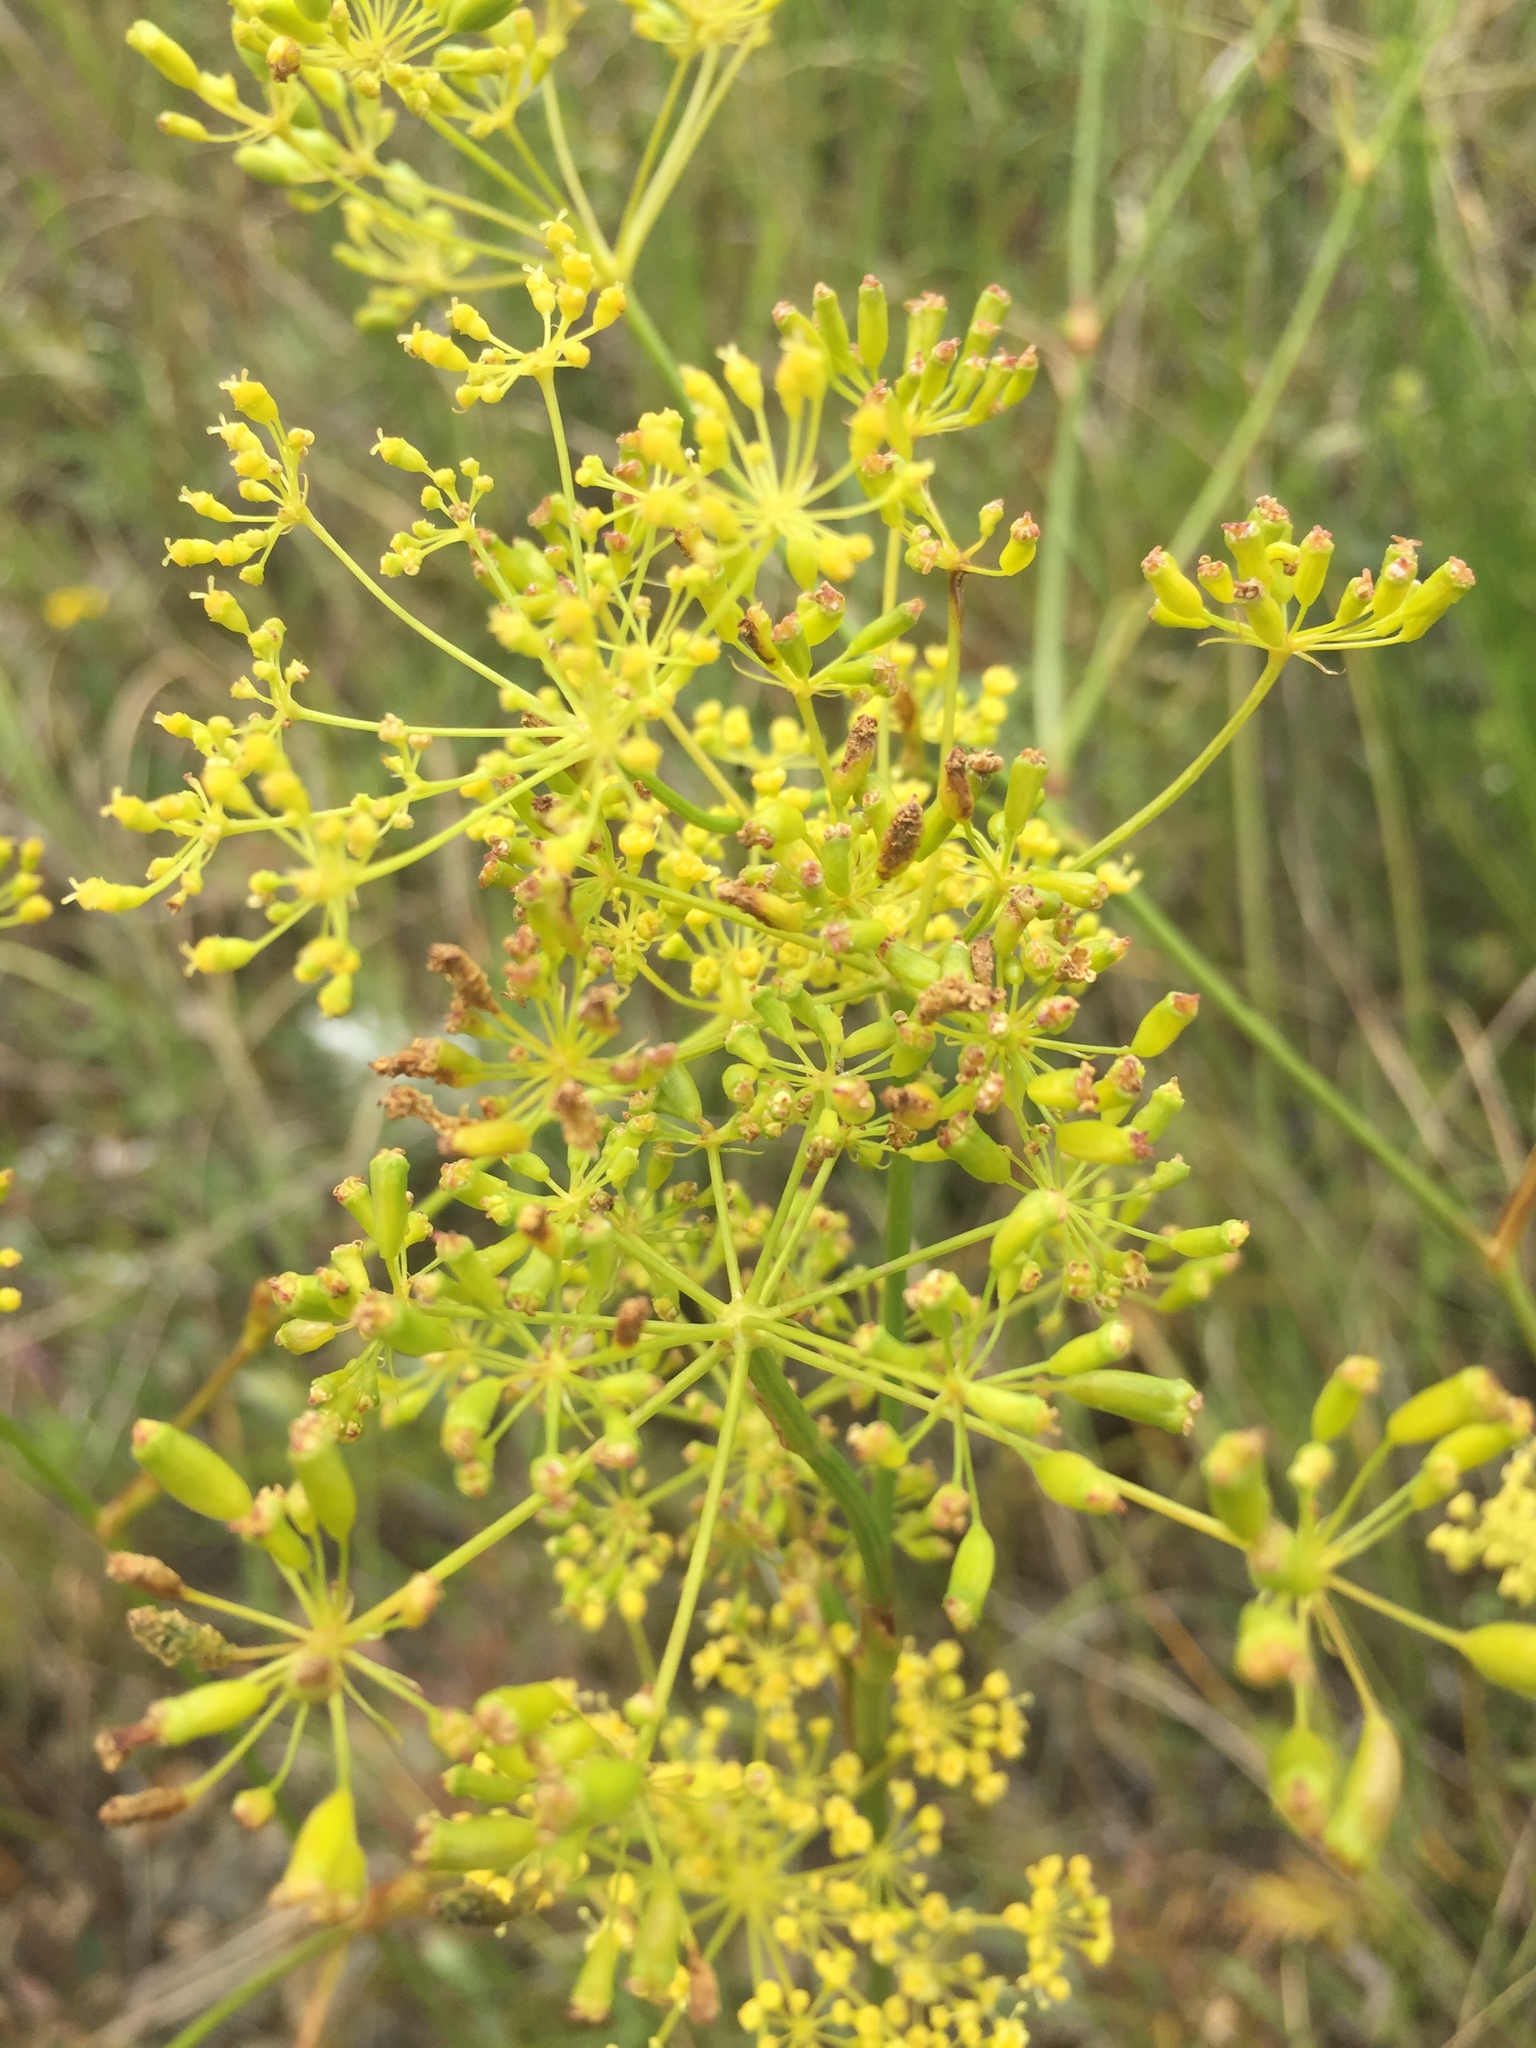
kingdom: Plantae
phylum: Tracheophyta
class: Magnoliopsida
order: Apiales
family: Apiaceae
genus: Peucedanum
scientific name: Peucedanum ruthenicum
